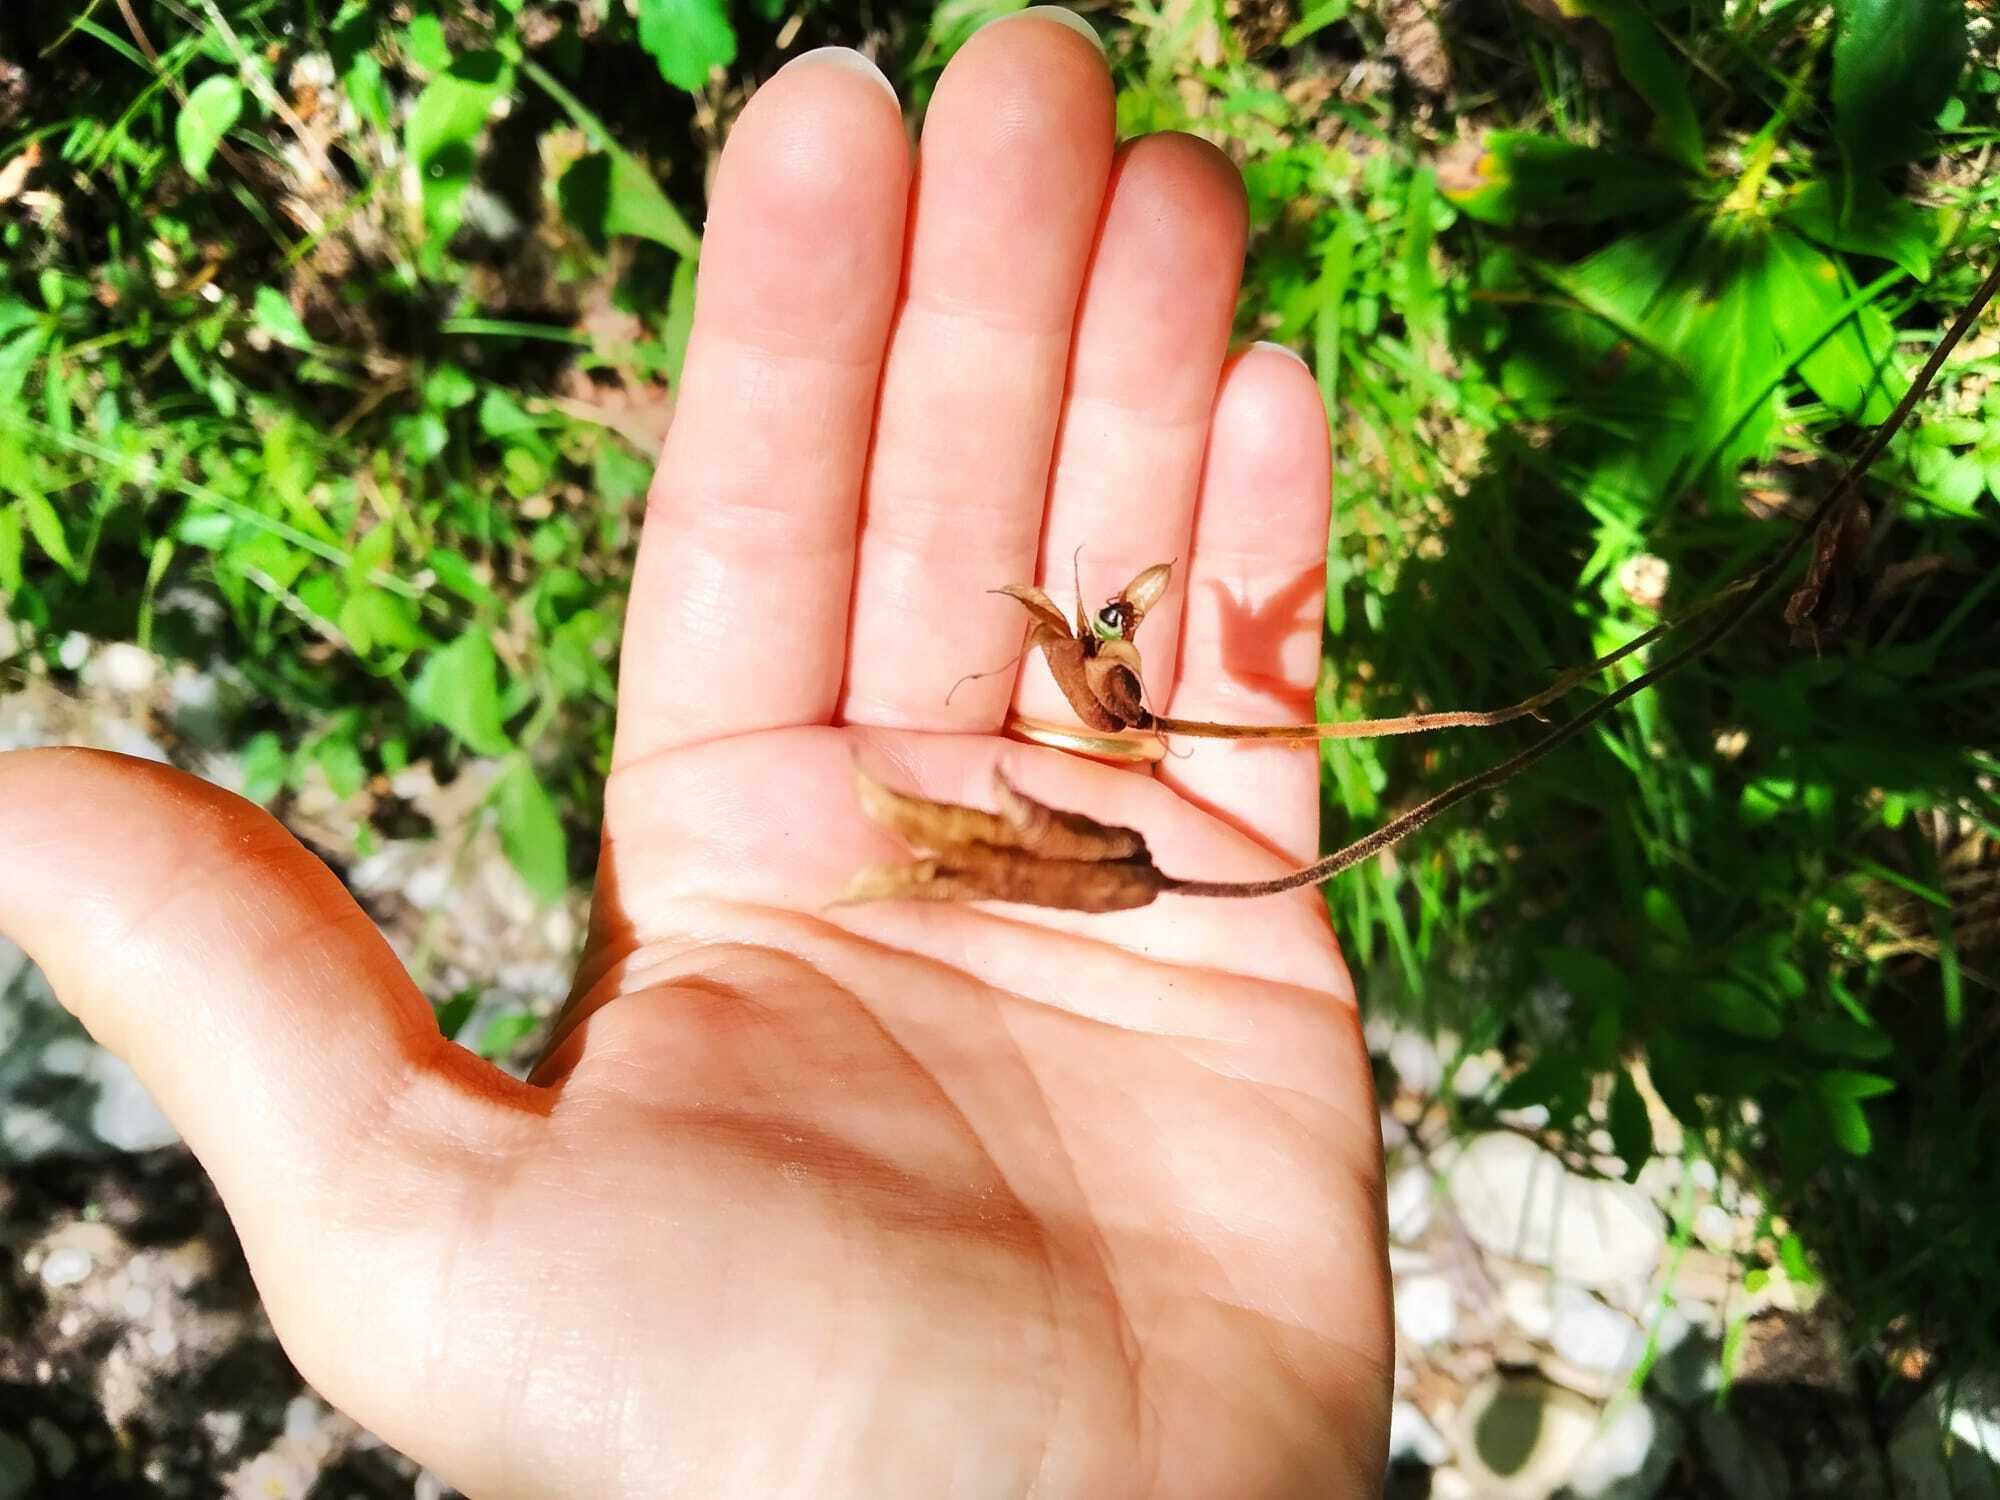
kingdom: Animalia
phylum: Arthropoda
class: Insecta
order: Hemiptera
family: Pentatomidae
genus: Palomena
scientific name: Palomena prasina
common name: Green shieldbug
